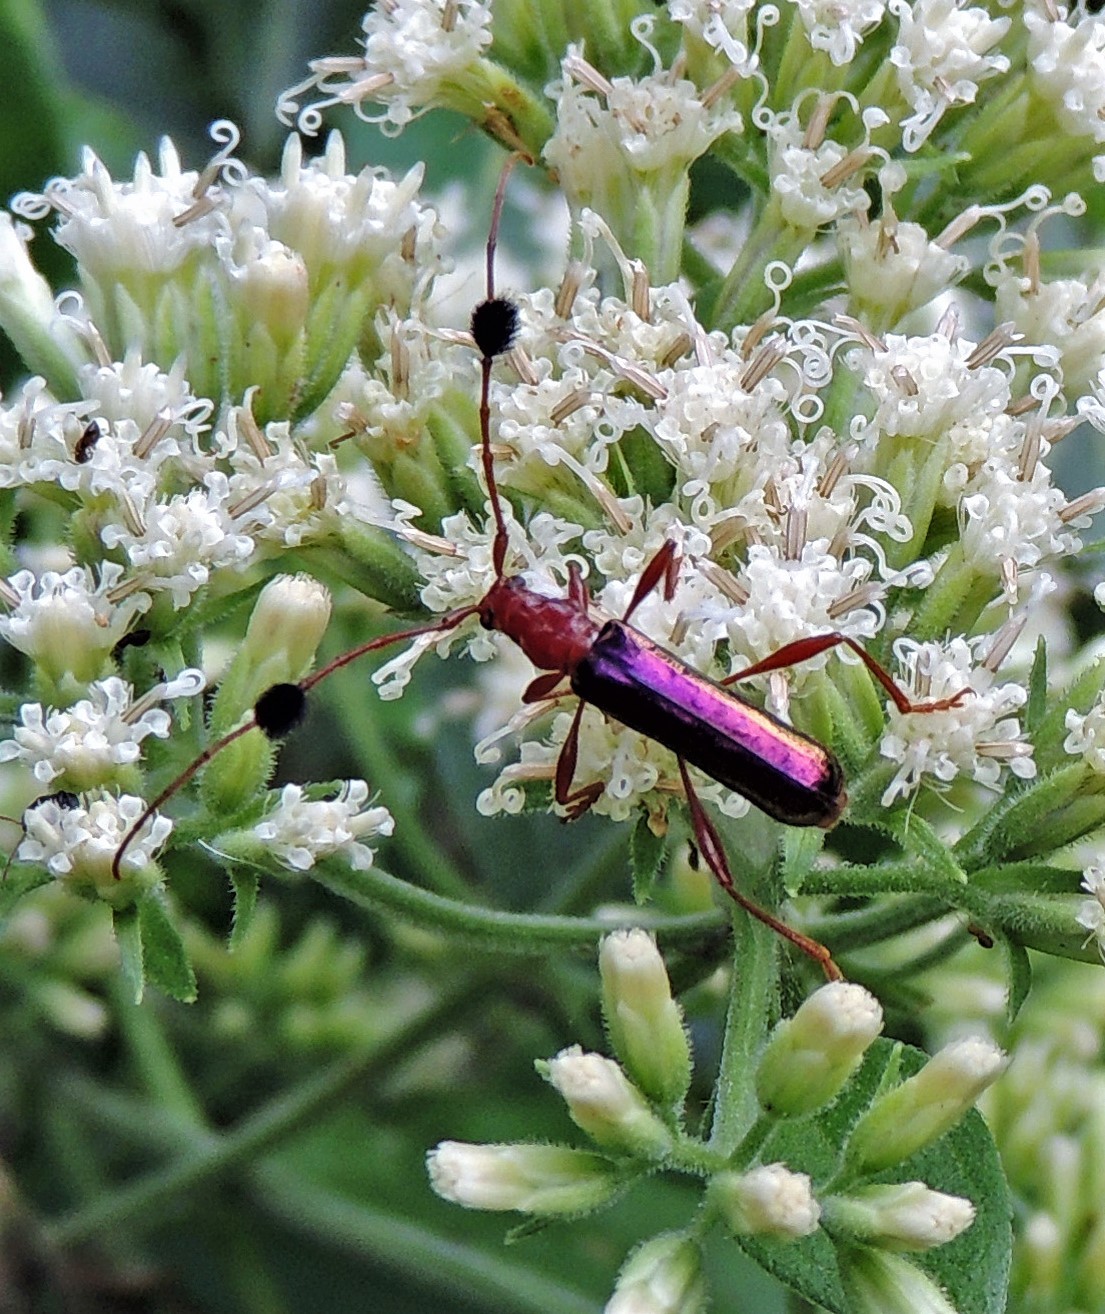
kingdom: Animalia
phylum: Arthropoda
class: Insecta
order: Coleoptera
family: Cerambycidae
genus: Paromoeocerus
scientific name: Paromoeocerus barbicornis
